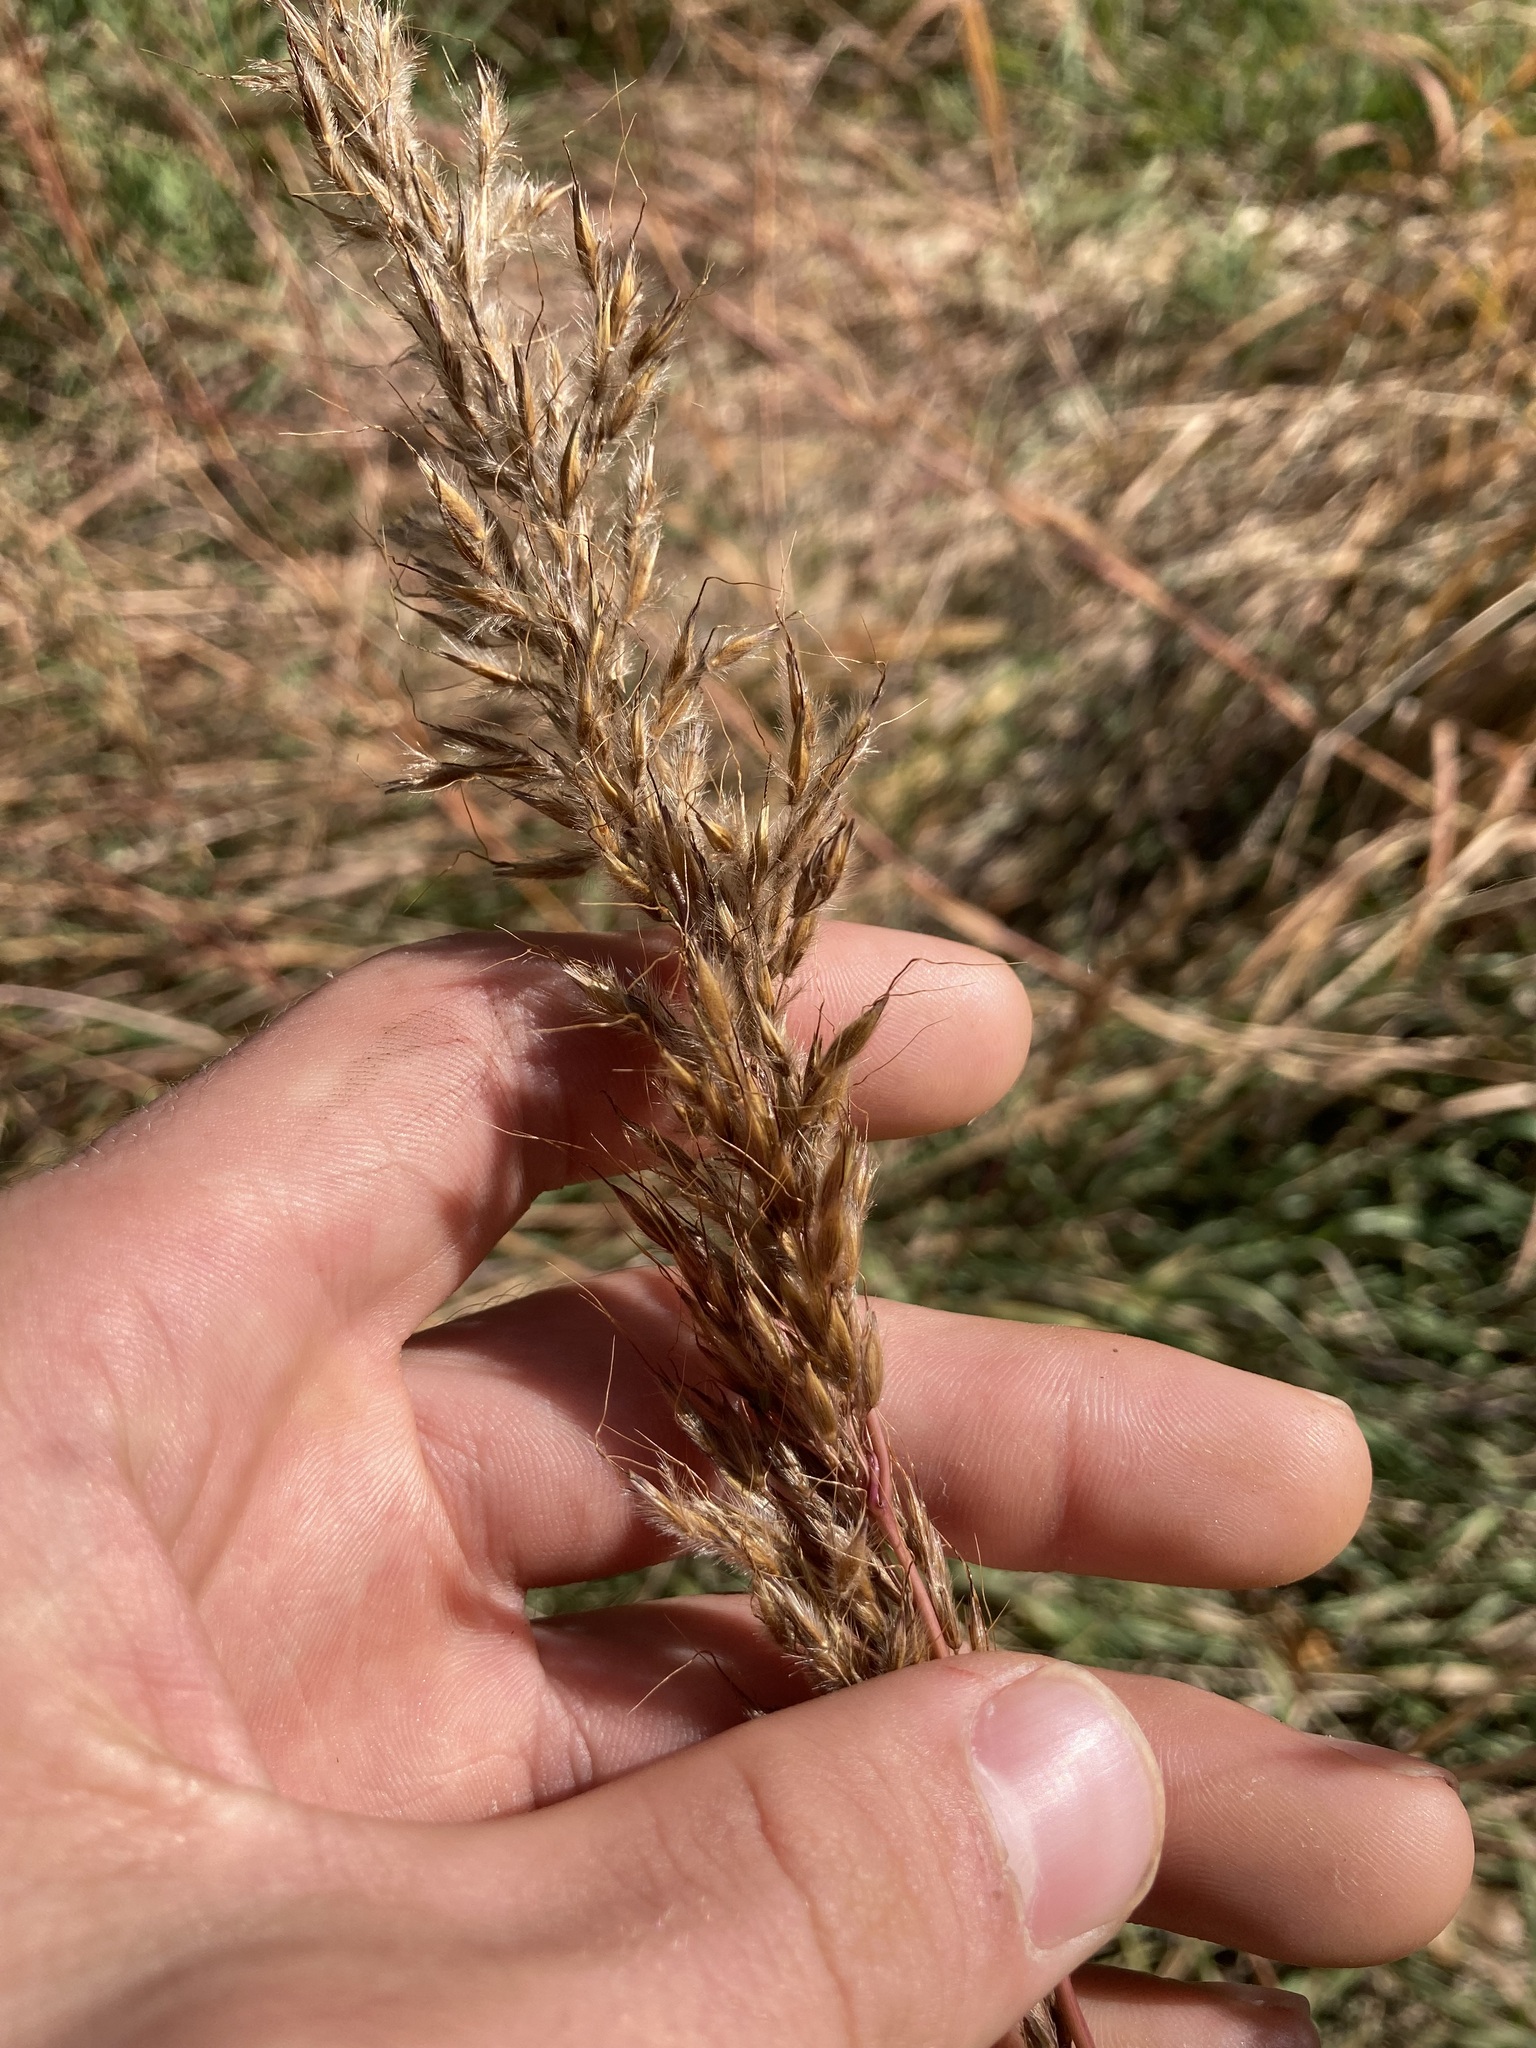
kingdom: Plantae
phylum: Tracheophyta
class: Liliopsida
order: Poales
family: Poaceae
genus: Sorghastrum
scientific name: Sorghastrum nutans
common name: Indian grass
